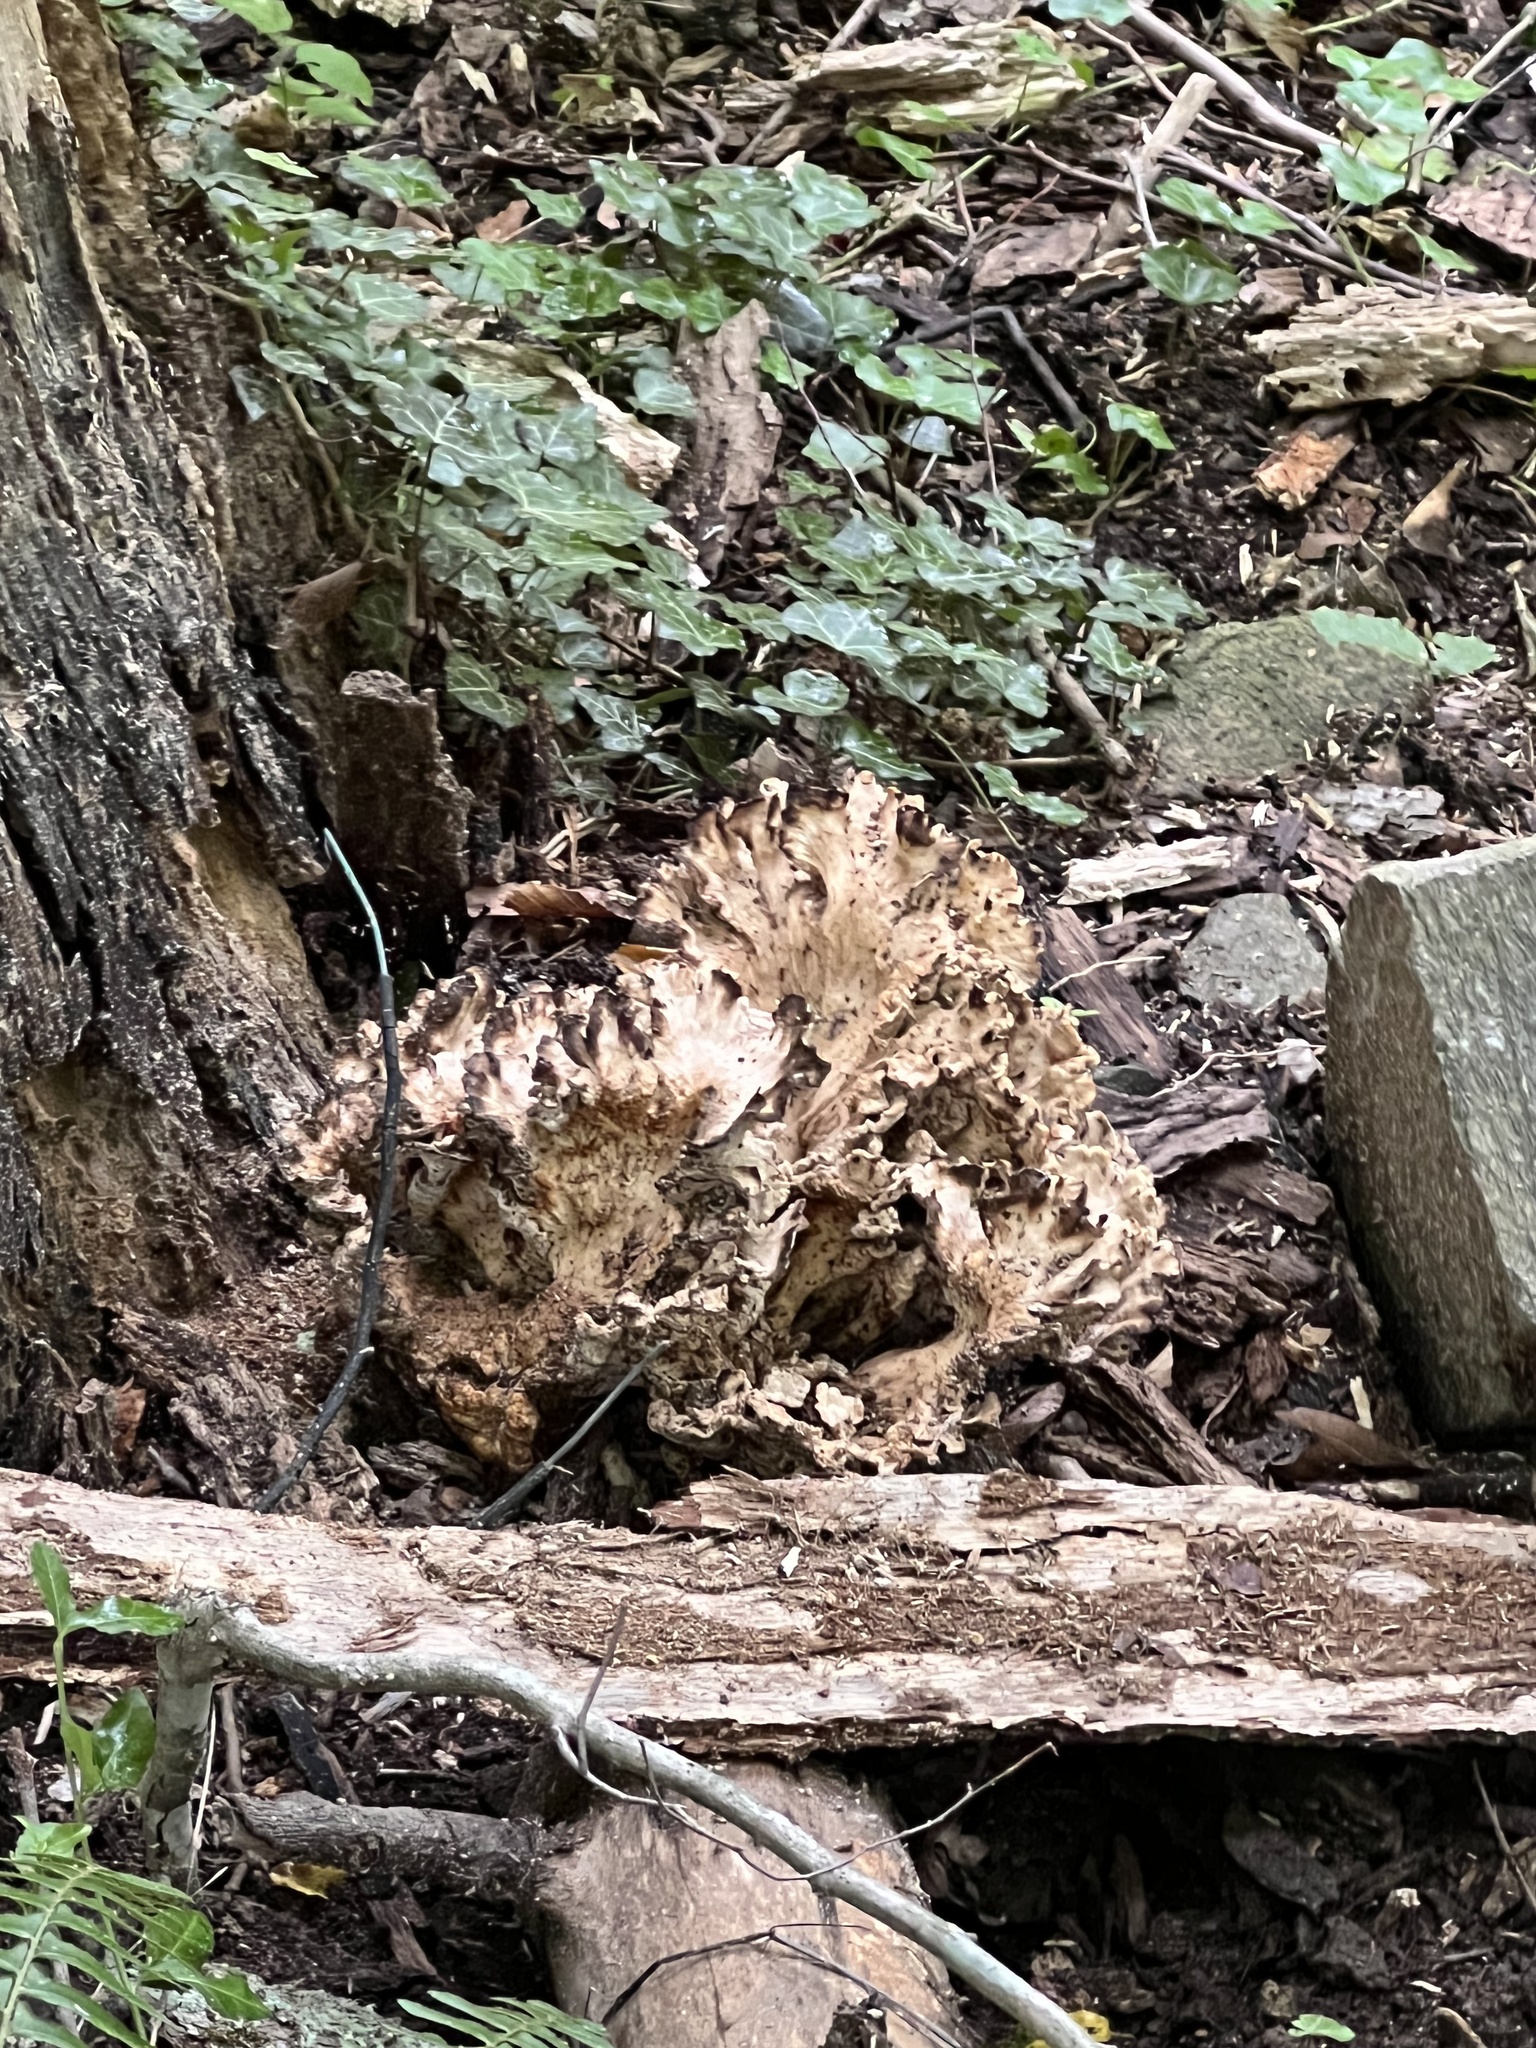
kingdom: Fungi
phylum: Basidiomycota
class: Agaricomycetes
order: Polyporales
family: Meripilaceae
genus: Meripilus
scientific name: Meripilus sumstinei
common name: Black-staining polypore
